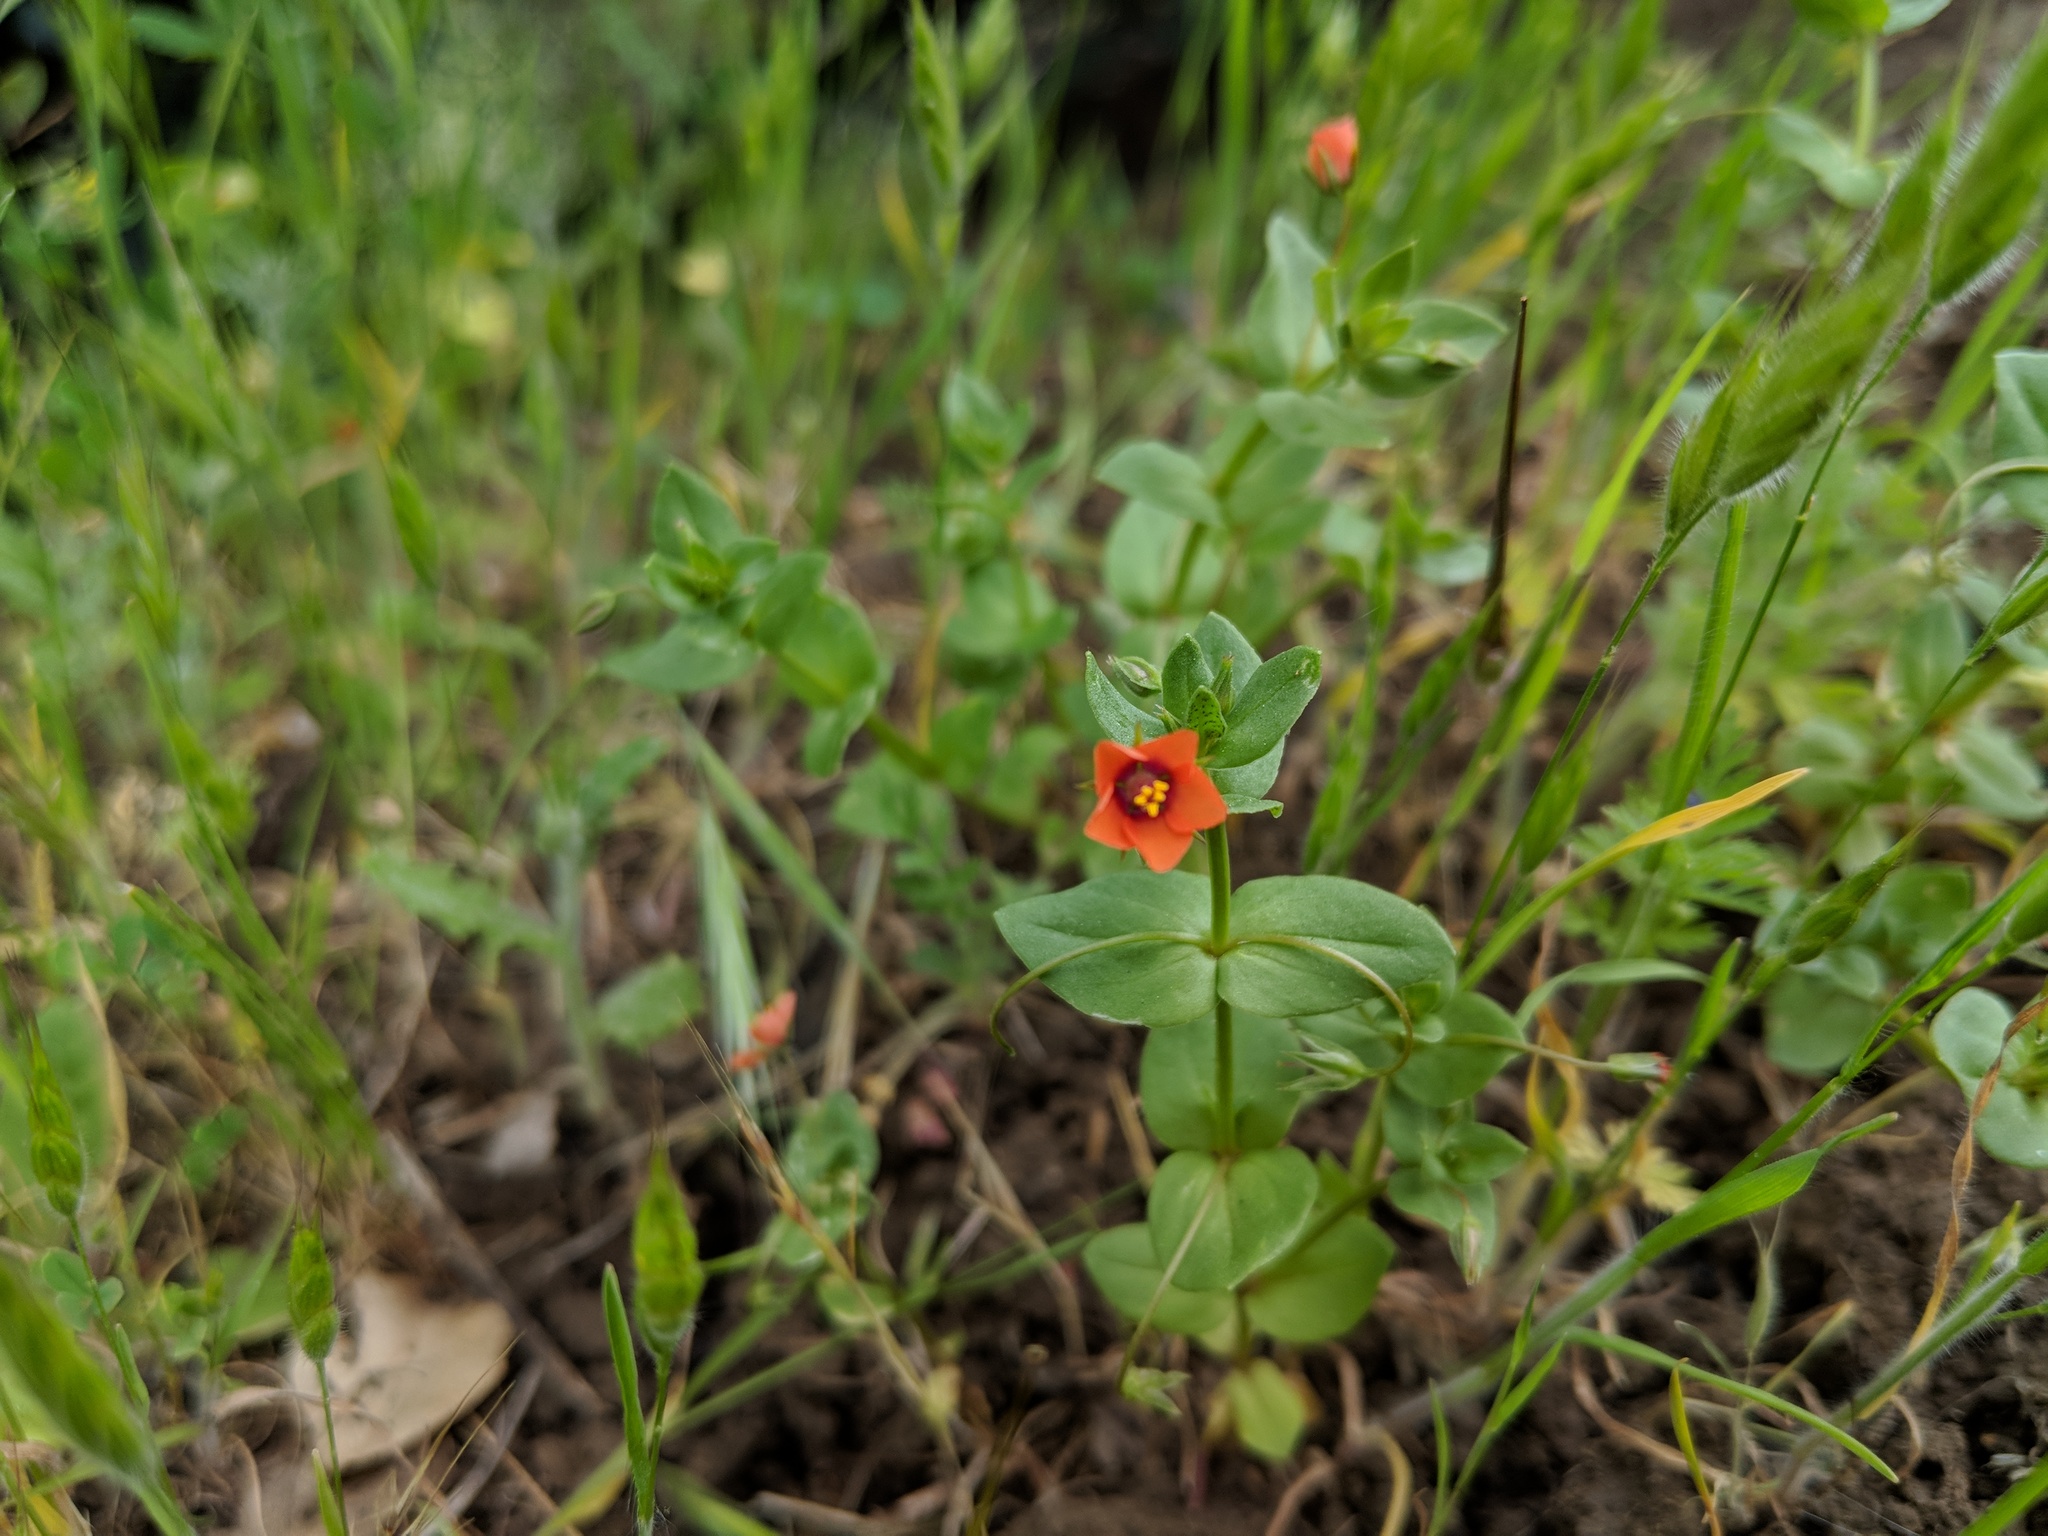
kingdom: Plantae
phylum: Tracheophyta
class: Magnoliopsida
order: Ericales
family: Primulaceae
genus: Lysimachia
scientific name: Lysimachia arvensis
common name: Scarlet pimpernel
